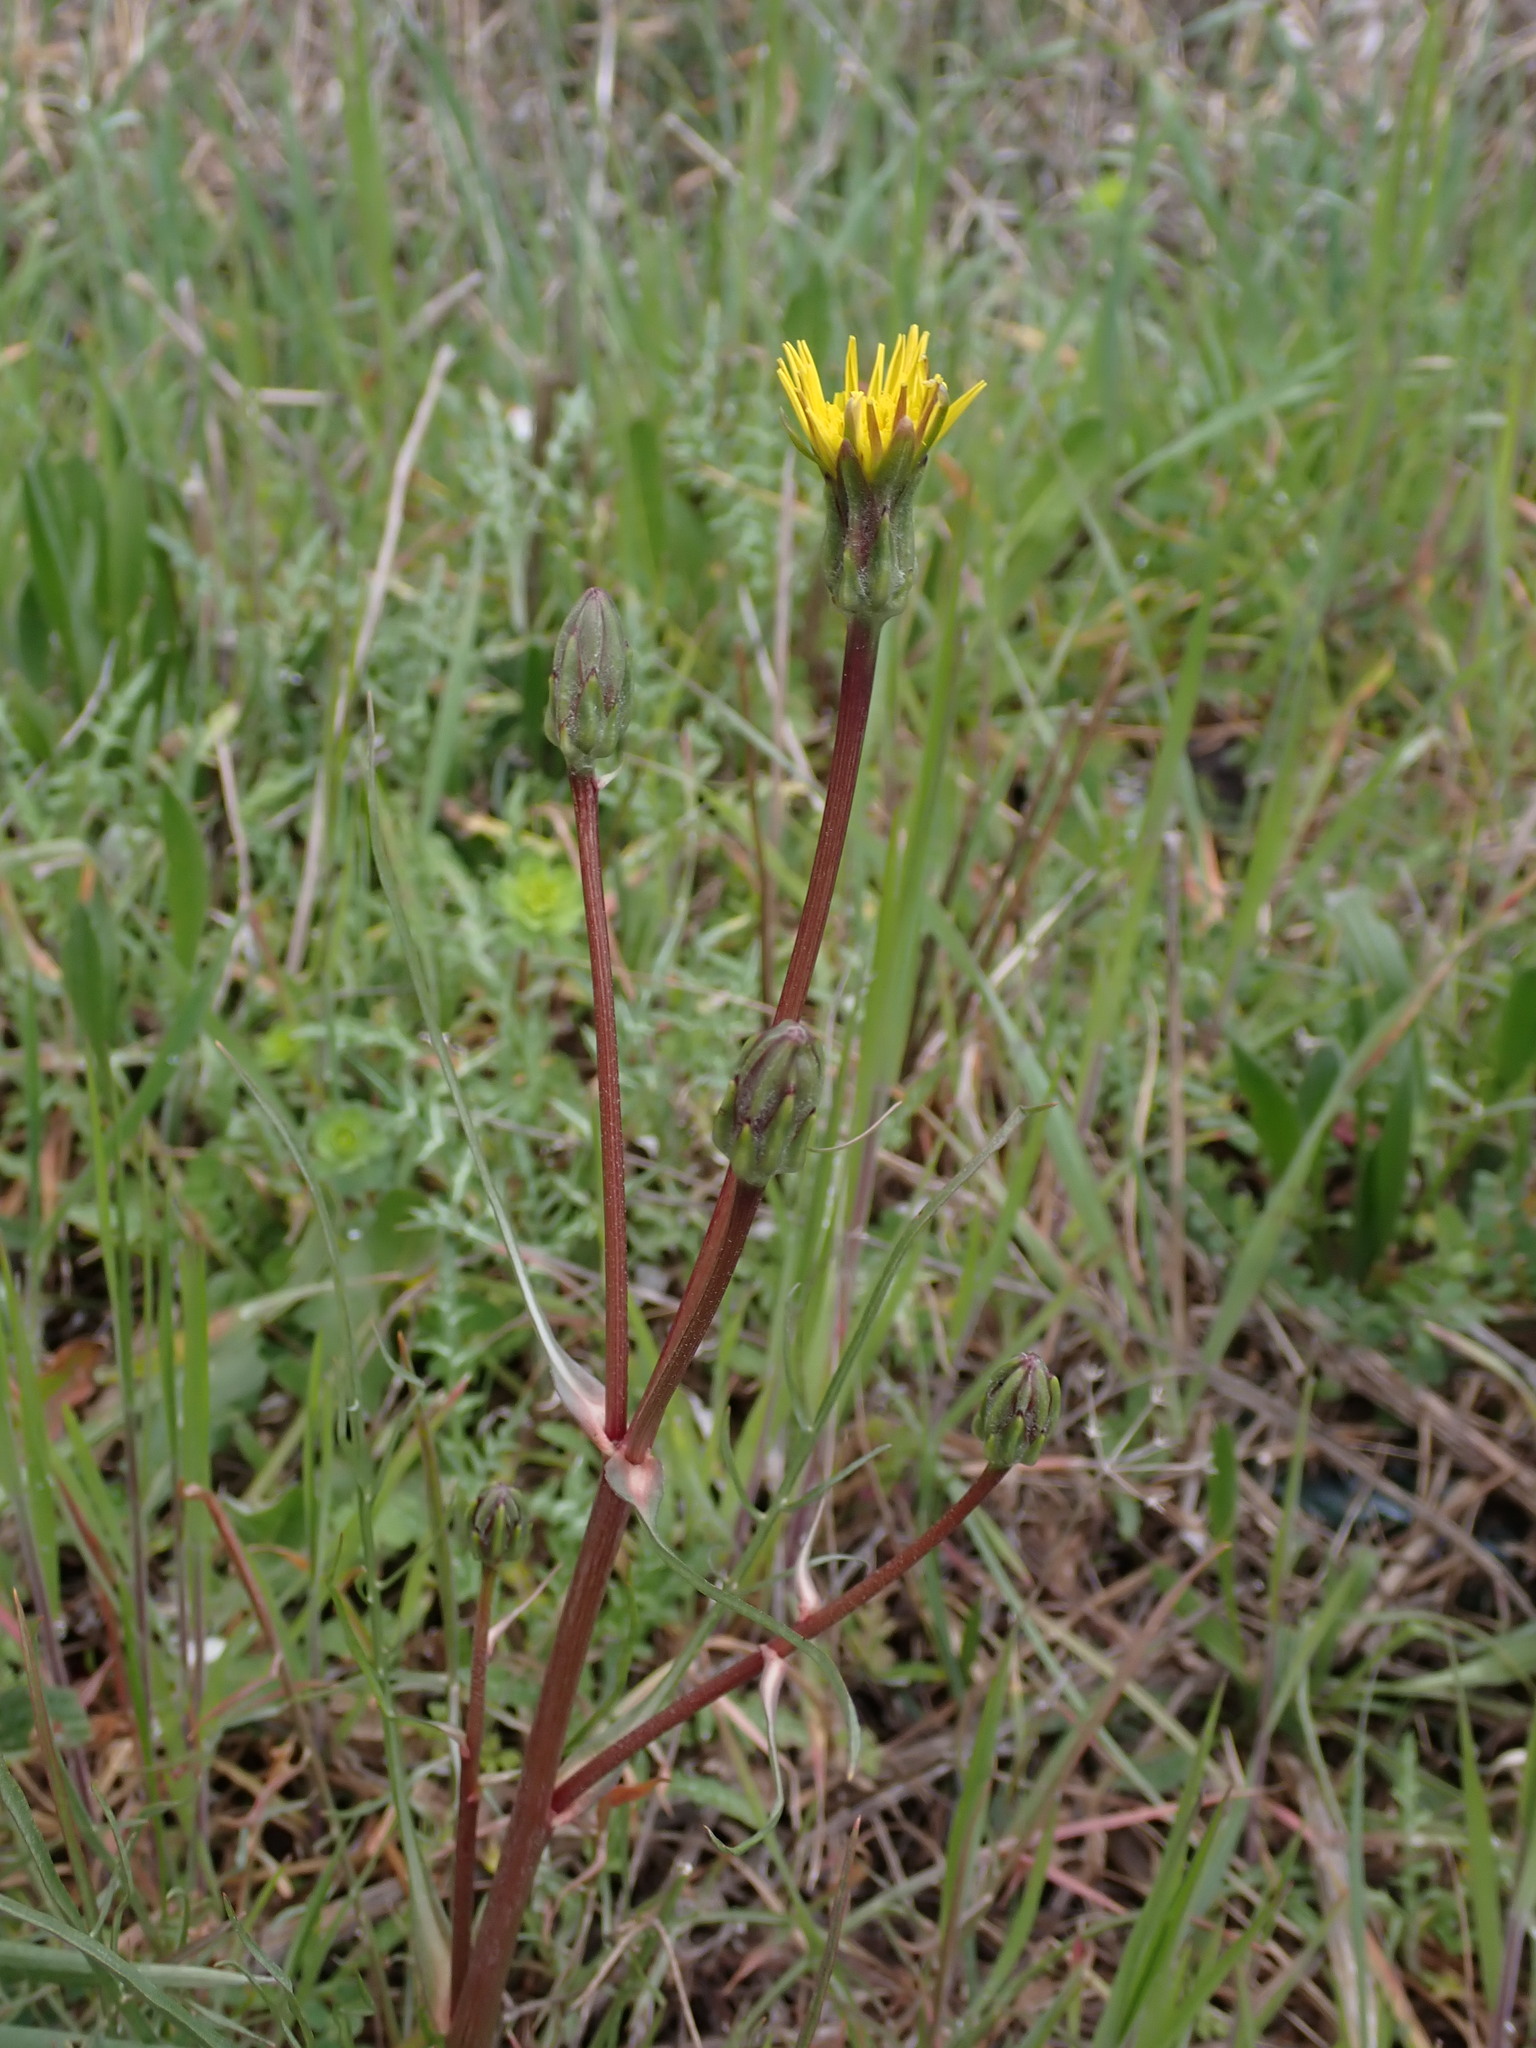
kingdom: Plantae
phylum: Tracheophyta
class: Magnoliopsida
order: Asterales
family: Asteraceae
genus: Scorzonera
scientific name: Scorzonera laciniata
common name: Cutleaf vipergrass
